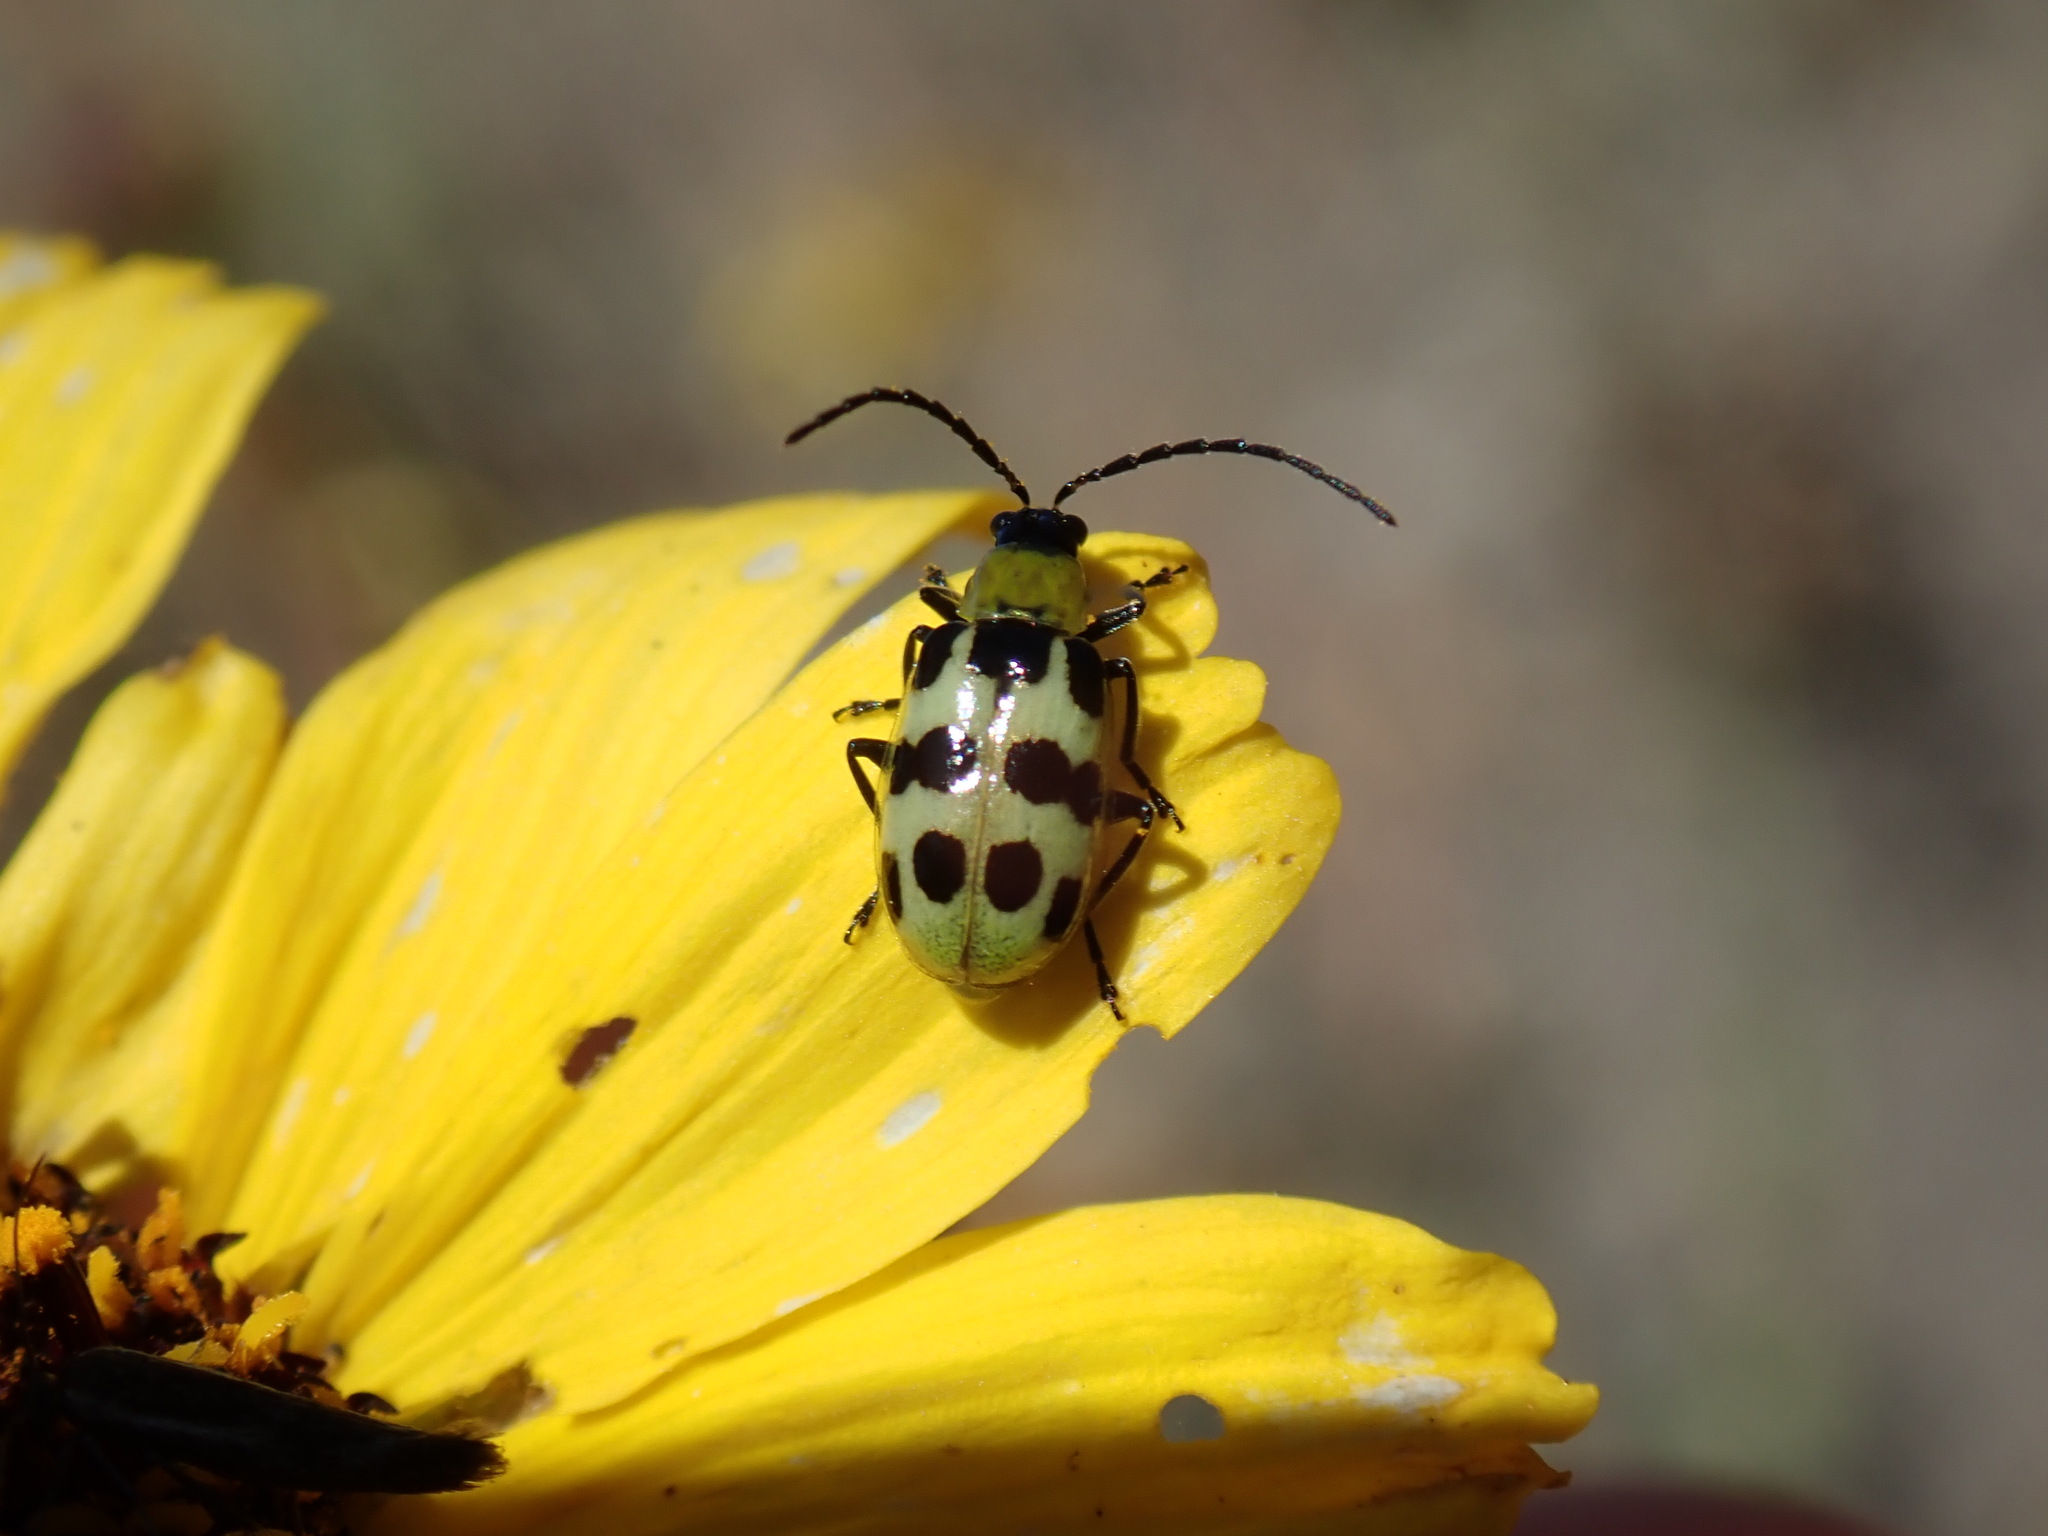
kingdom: Animalia
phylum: Arthropoda
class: Insecta
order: Coleoptera
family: Chrysomelidae
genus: Diabrotica
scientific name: Diabrotica undecimpunctata
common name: Spotted cucumber beetle
